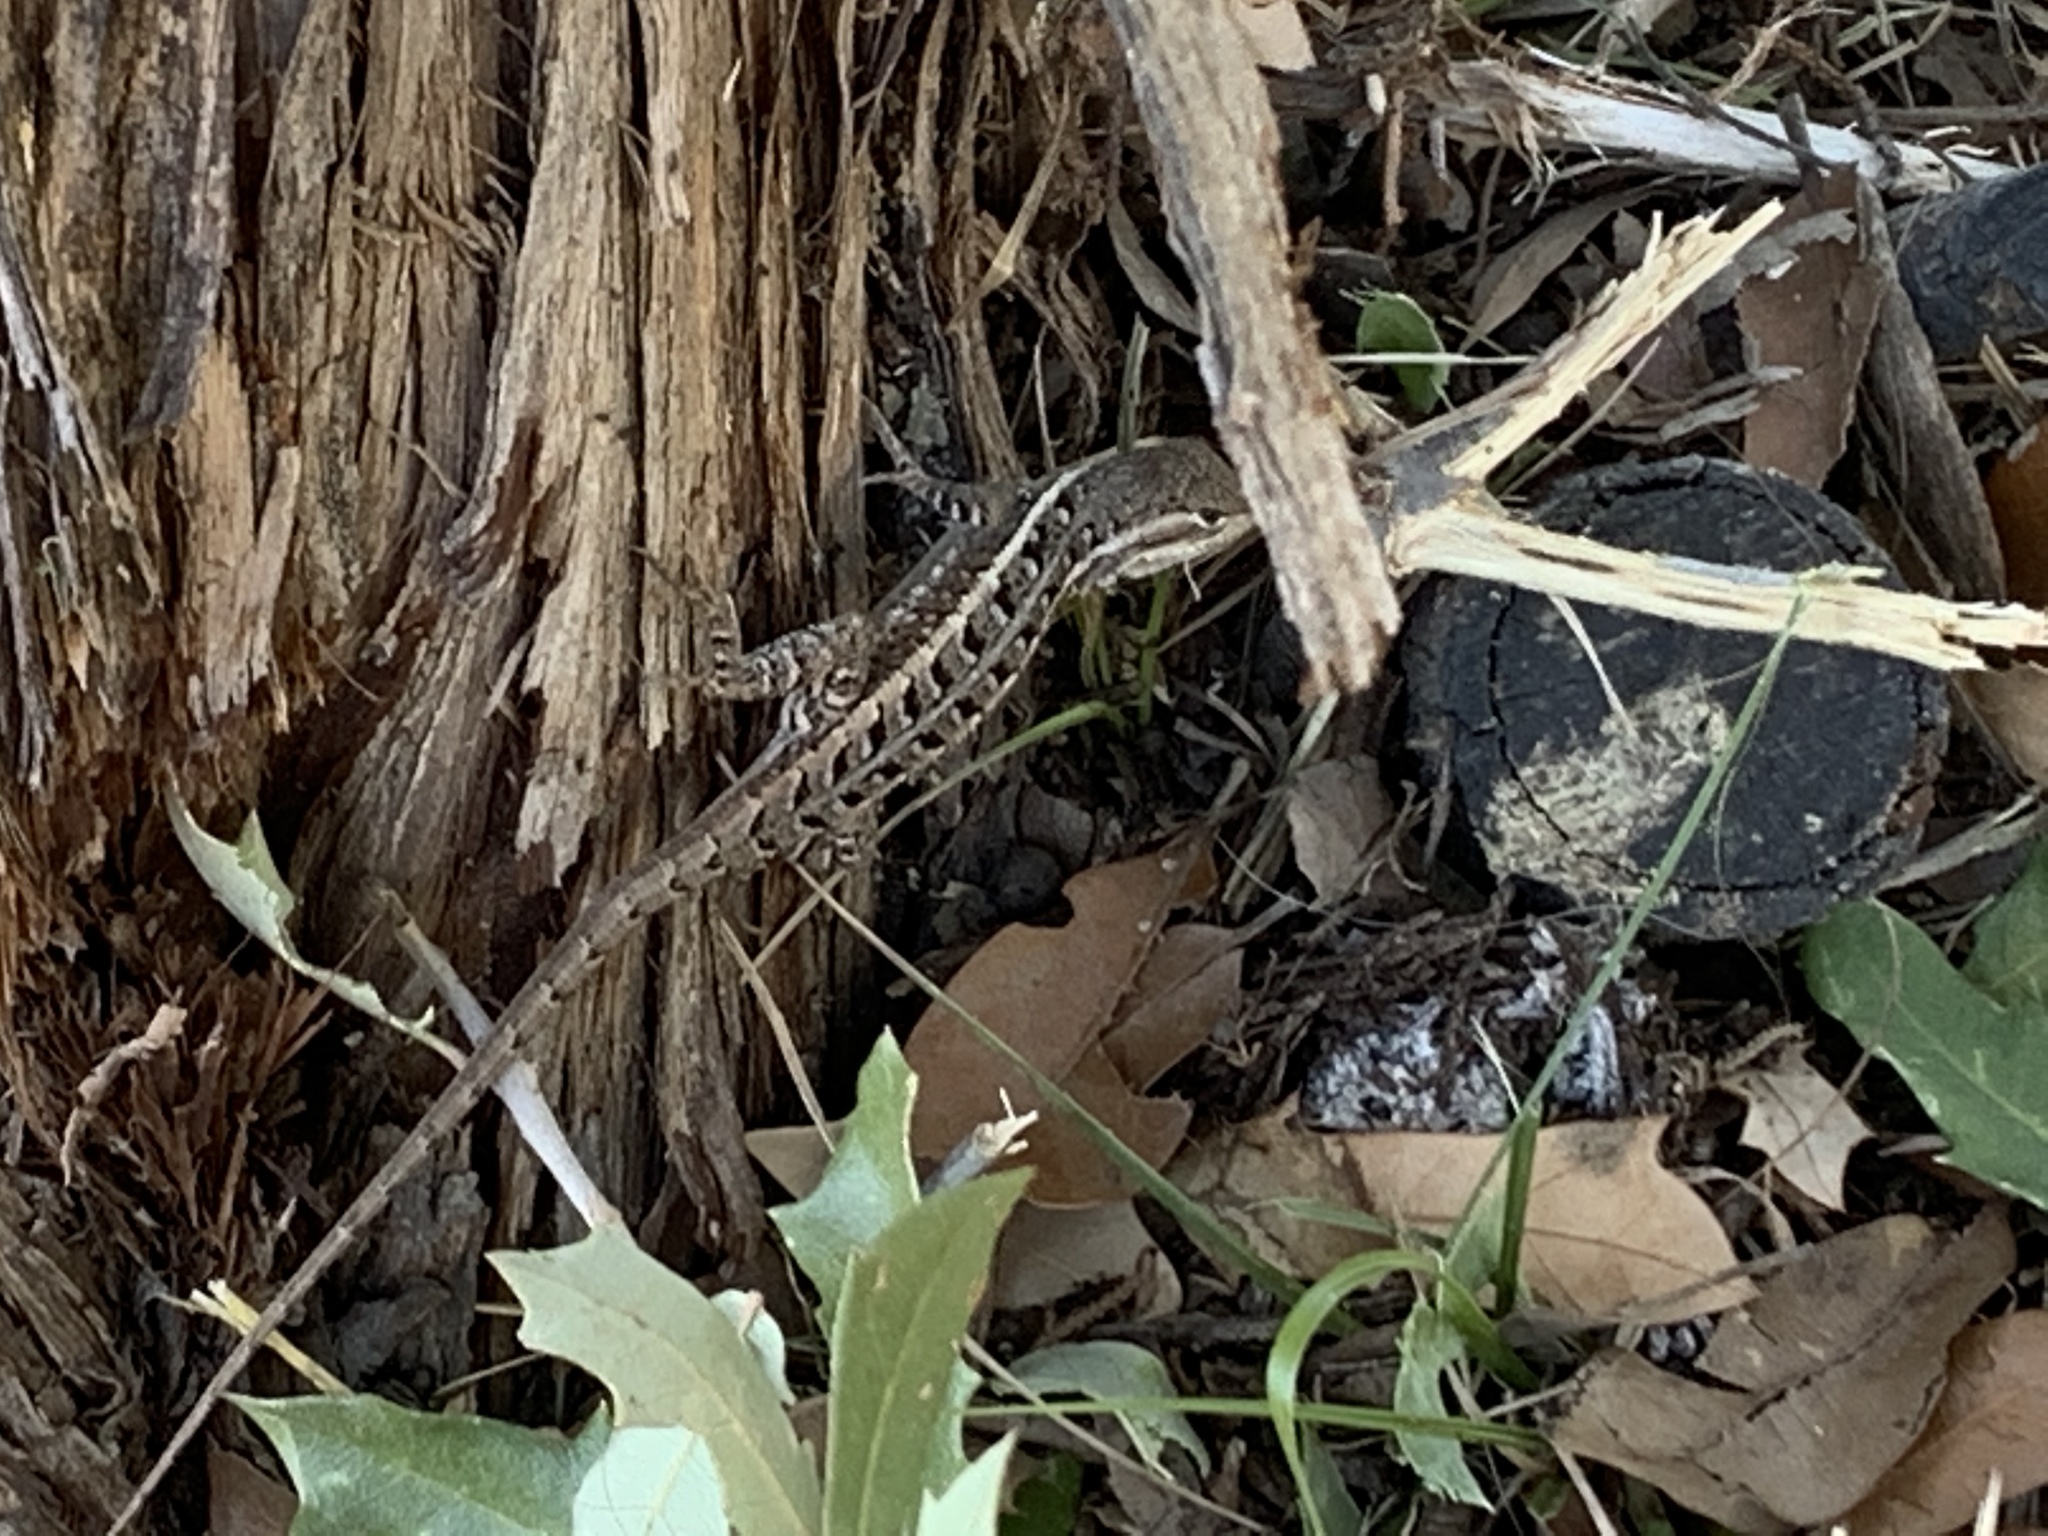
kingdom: Animalia
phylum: Chordata
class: Squamata
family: Phrynosomatidae
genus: Sceloporus
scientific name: Sceloporus variabilis
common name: Rosebelly lizard
